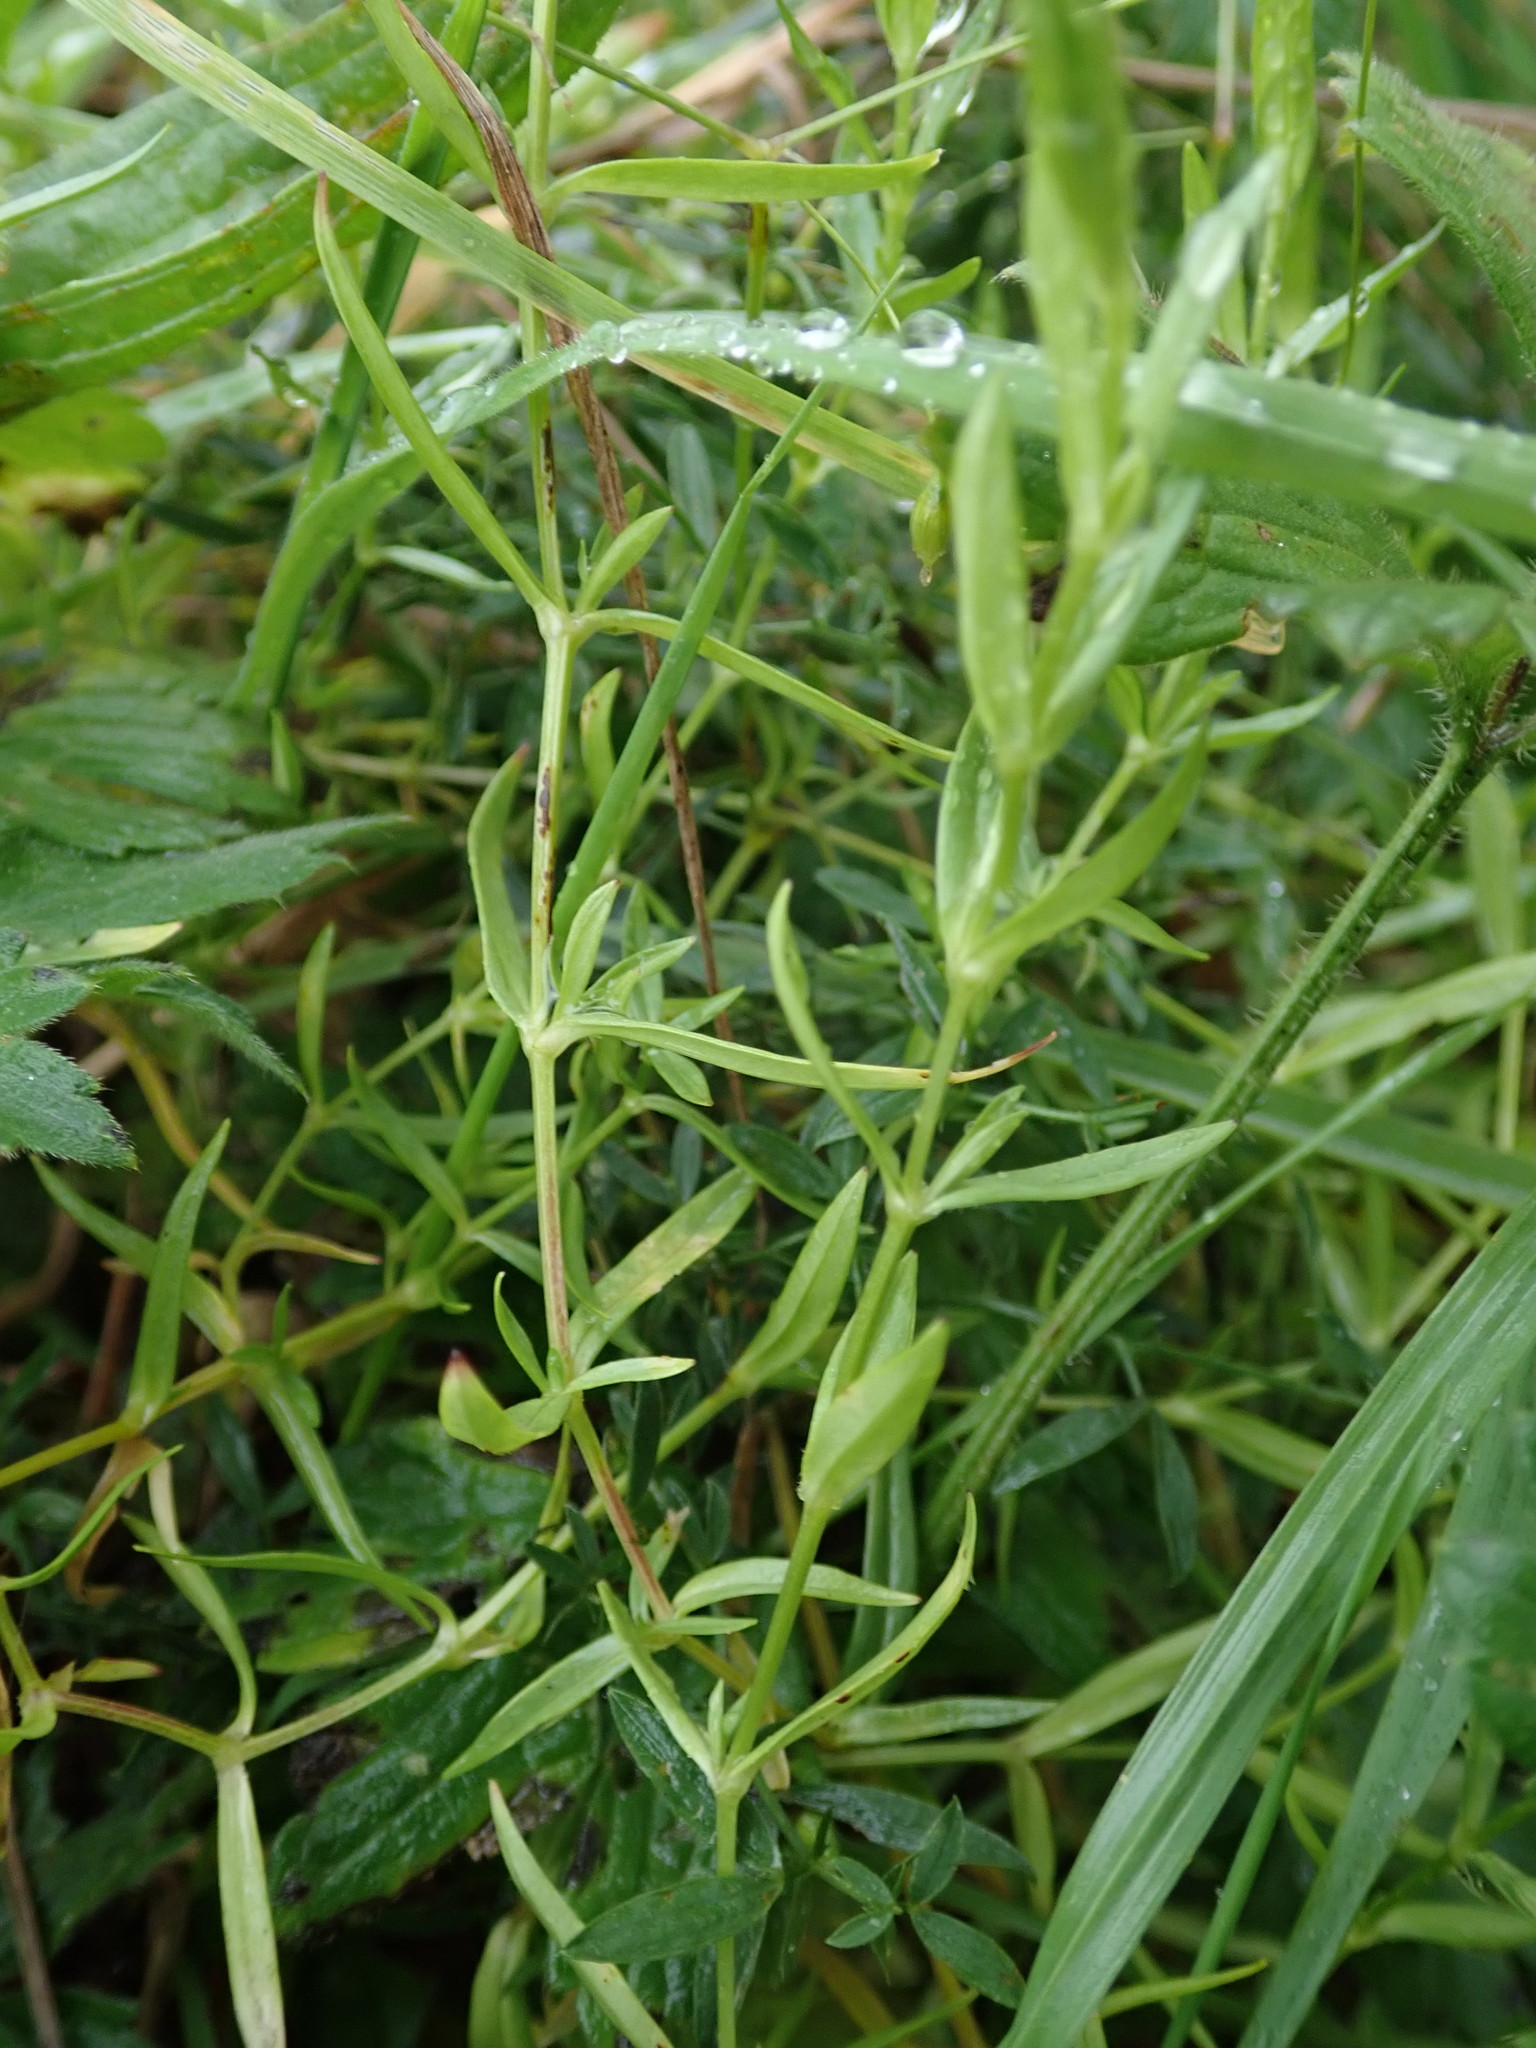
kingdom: Plantae
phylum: Tracheophyta
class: Magnoliopsida
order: Caryophyllales
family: Caryophyllaceae
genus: Stellaria
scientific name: Stellaria graminea
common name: Grass-like starwort
